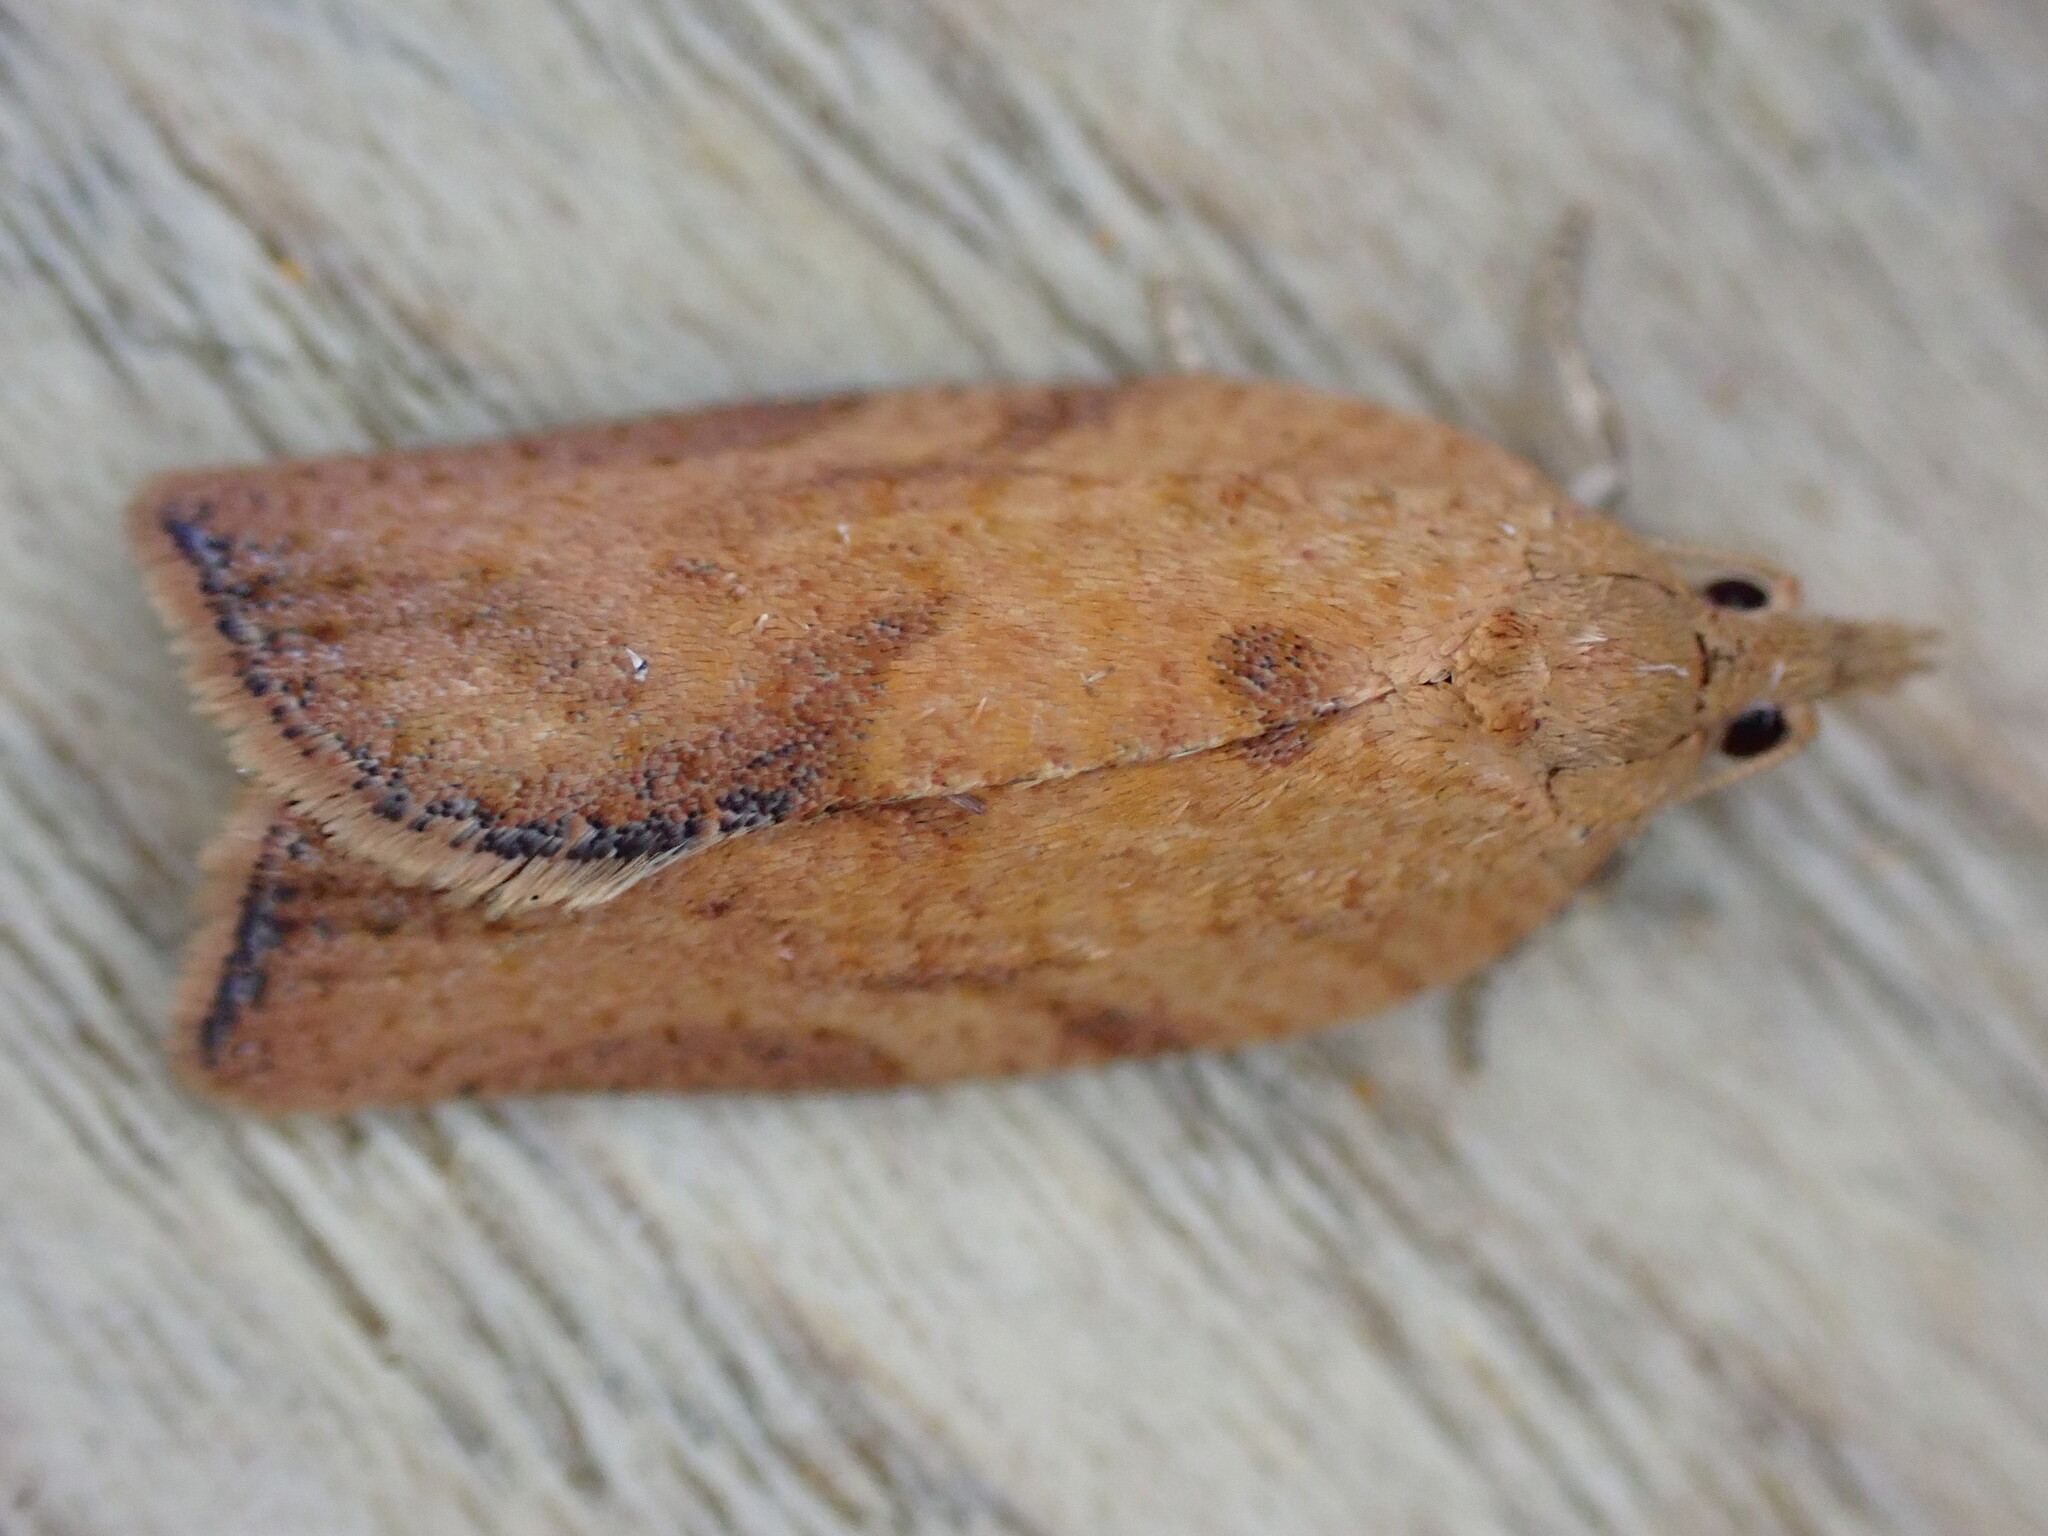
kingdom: Animalia
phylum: Arthropoda
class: Insecta
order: Lepidoptera
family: Tortricidae
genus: Epiphyas
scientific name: Epiphyas postvittana
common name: Light brown apple moth
